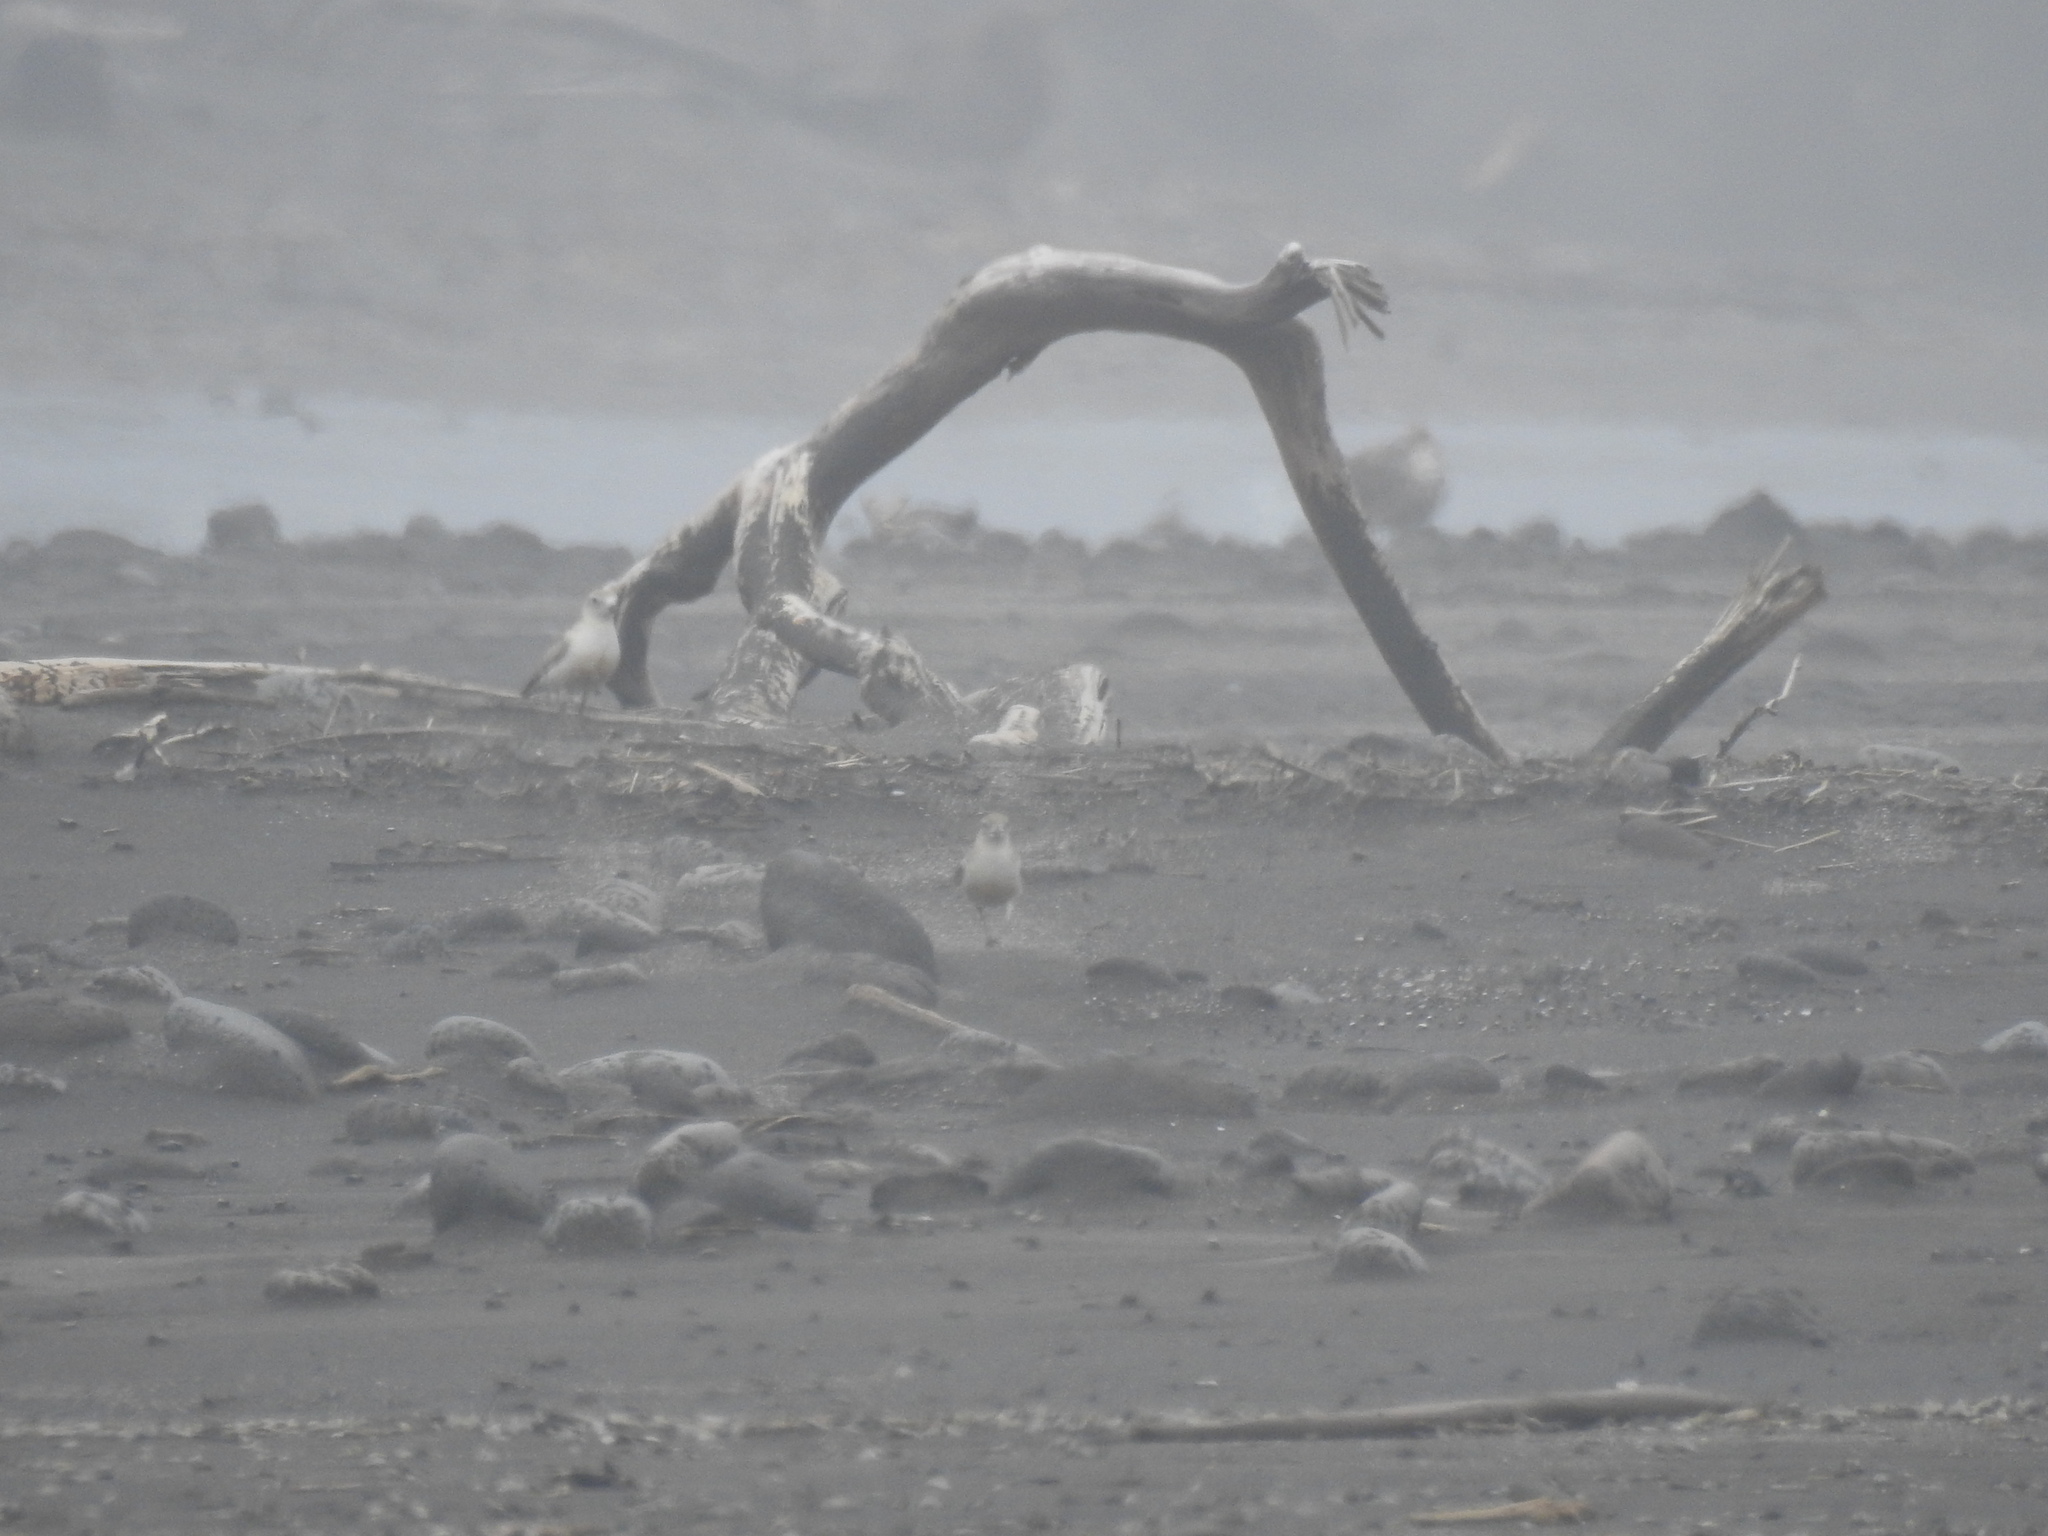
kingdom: Animalia
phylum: Chordata
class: Aves
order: Charadriiformes
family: Charadriidae
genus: Anarhynchus
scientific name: Anarhynchus
